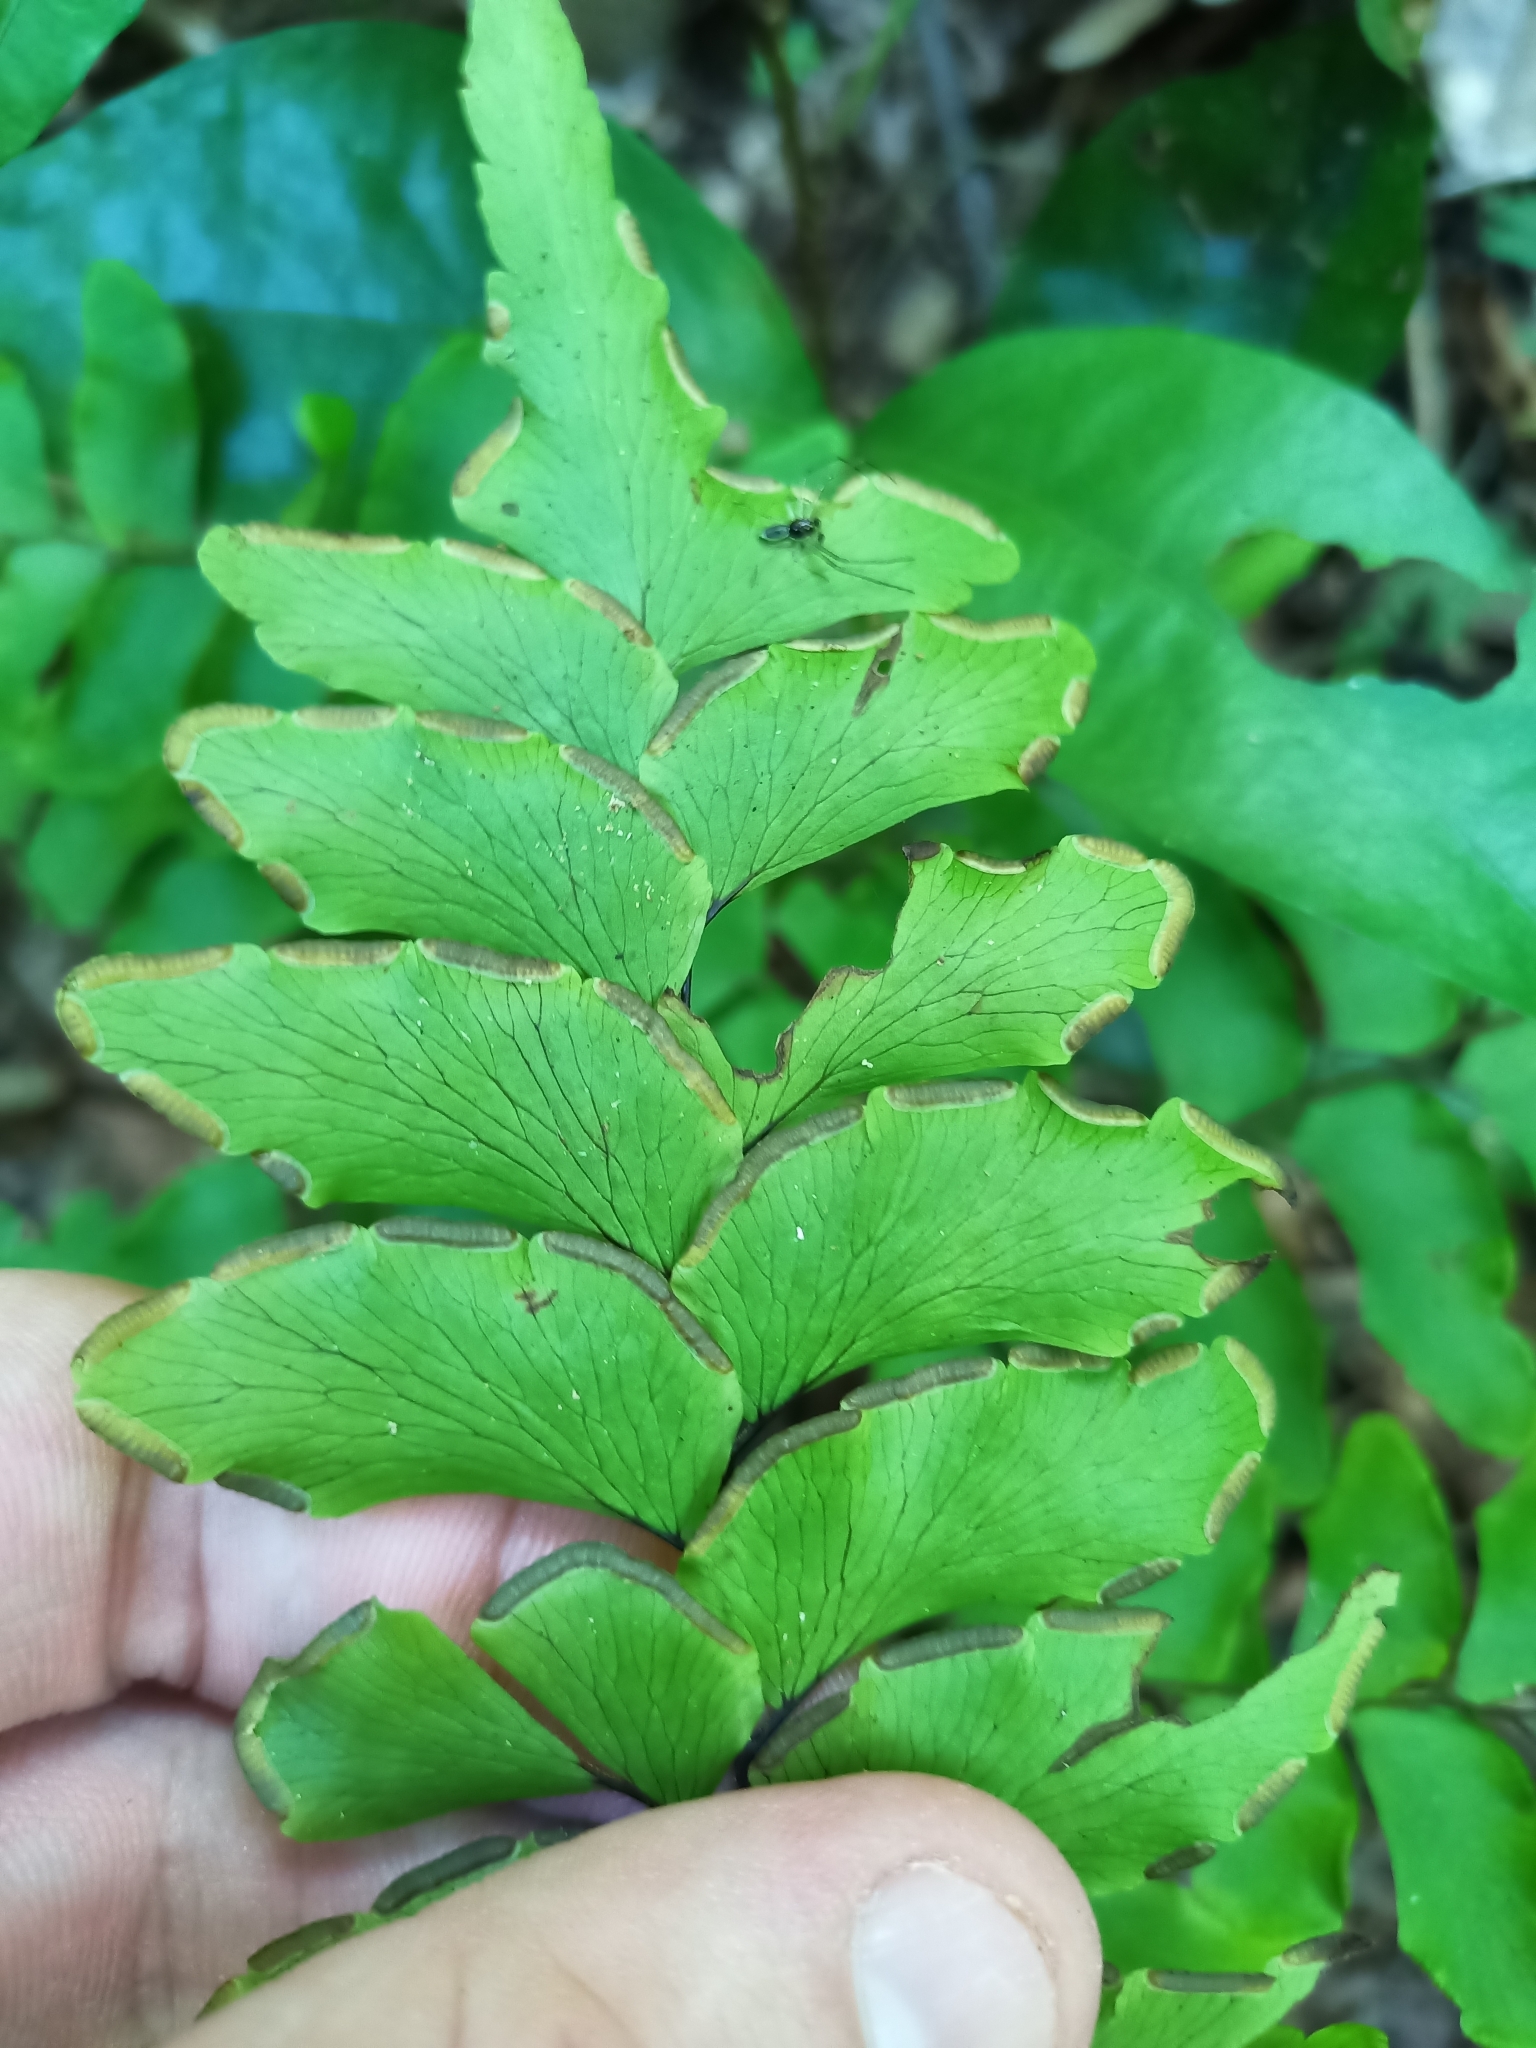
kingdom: Plantae
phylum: Tracheophyta
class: Polypodiopsida
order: Polypodiales
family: Pteridaceae
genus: Adiantum
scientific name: Adiantum leprieurii
